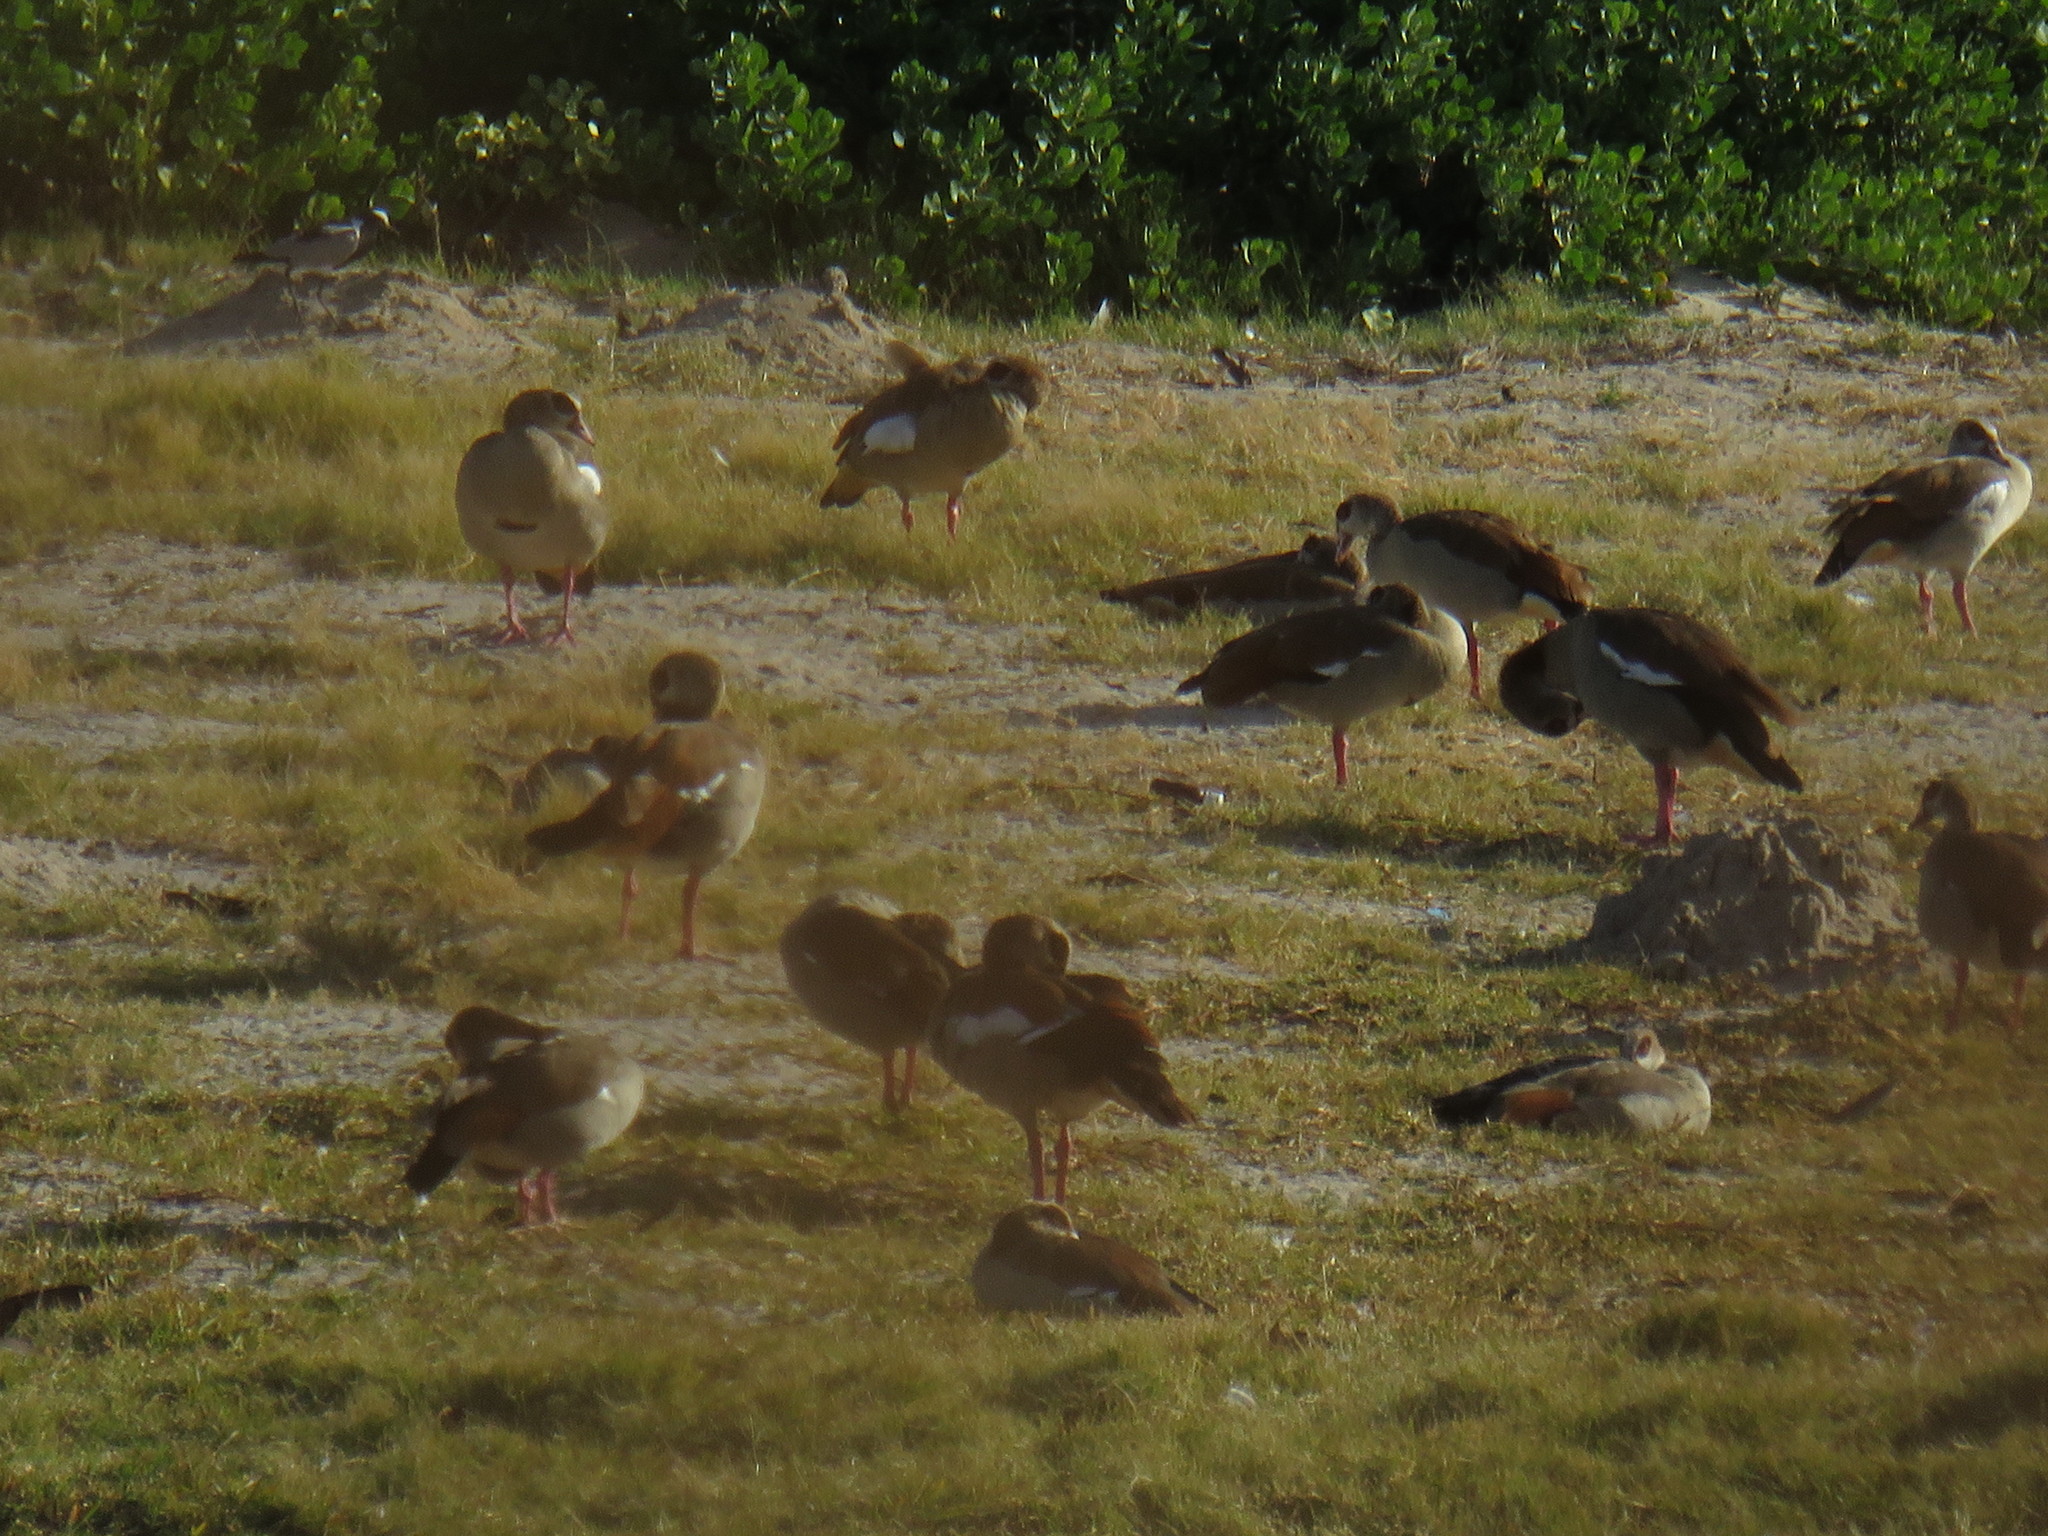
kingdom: Animalia
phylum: Chordata
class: Aves
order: Anseriformes
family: Anatidae
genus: Alopochen
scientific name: Alopochen aegyptiaca
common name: Egyptian goose
